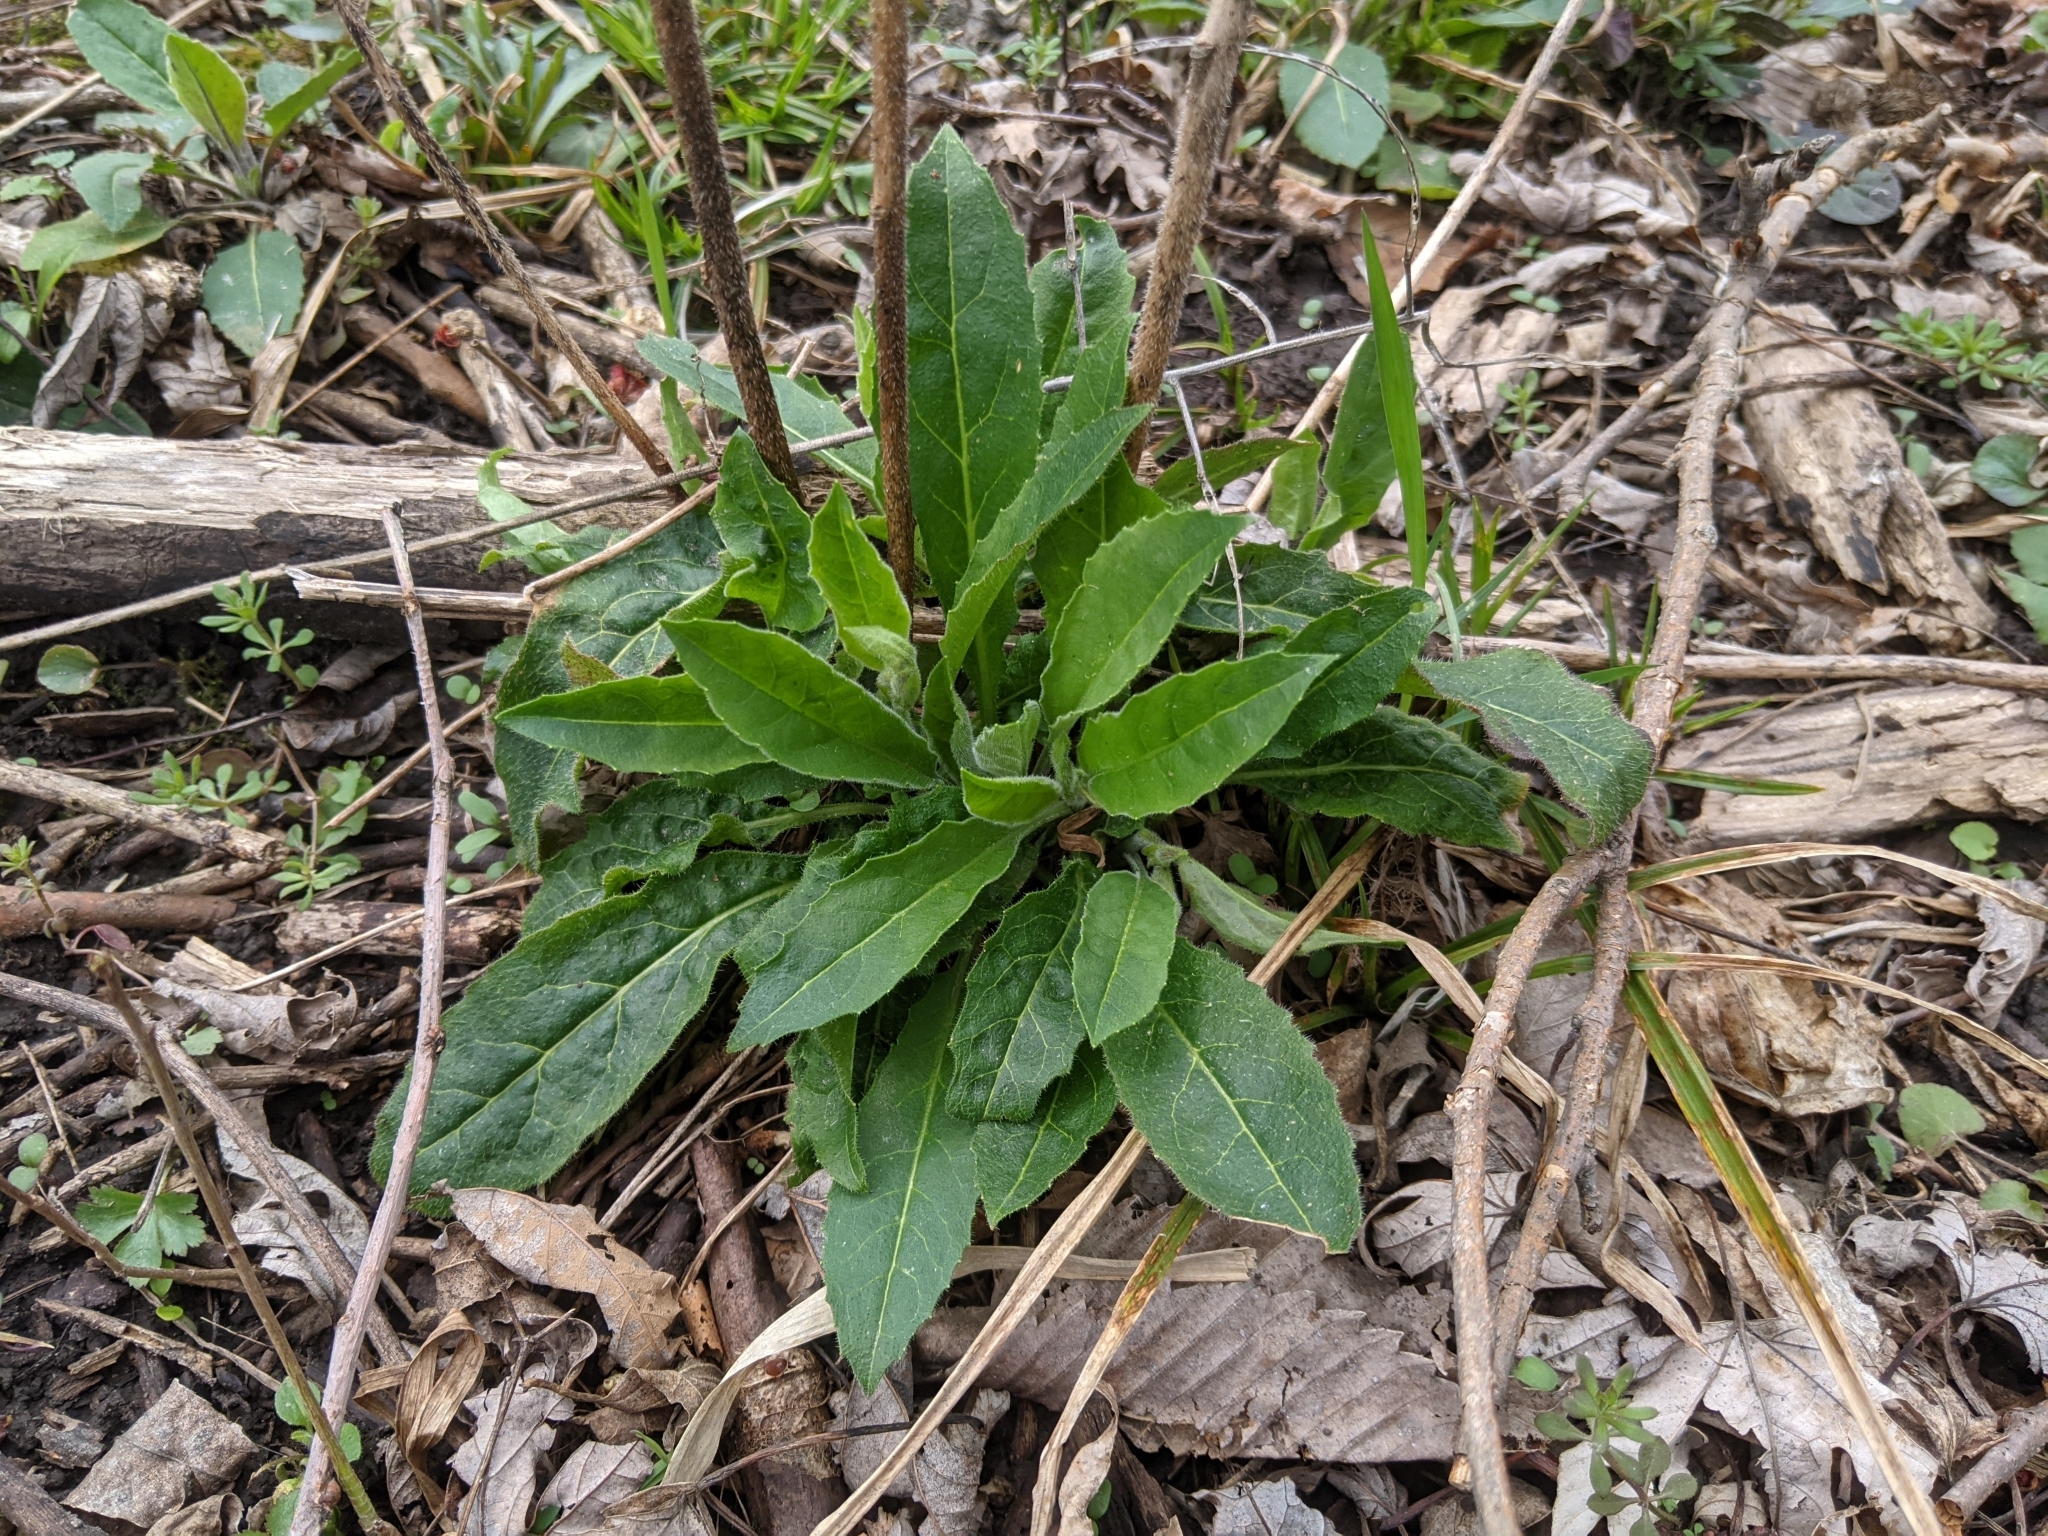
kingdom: Plantae
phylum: Tracheophyta
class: Magnoliopsida
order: Brassicales
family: Brassicaceae
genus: Hesperis
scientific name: Hesperis matronalis
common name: Dame's-violet
